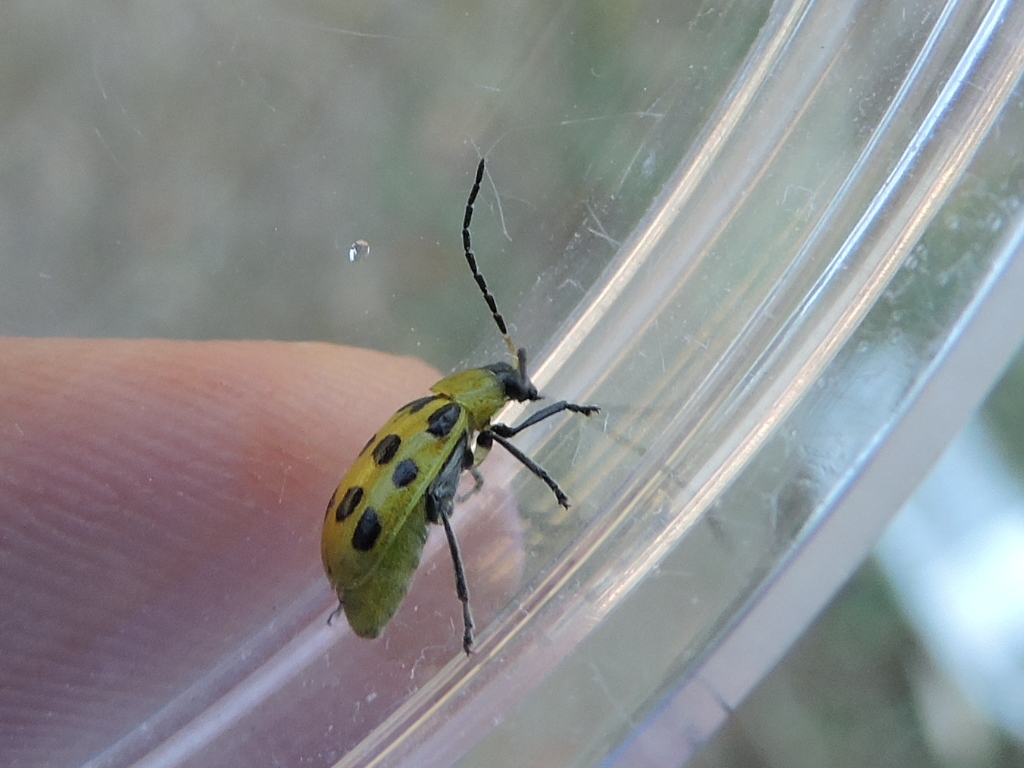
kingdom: Animalia
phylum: Arthropoda
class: Insecta
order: Coleoptera
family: Chrysomelidae
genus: Diabrotica
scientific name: Diabrotica undecimpunctata
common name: Spotted cucumber beetle
